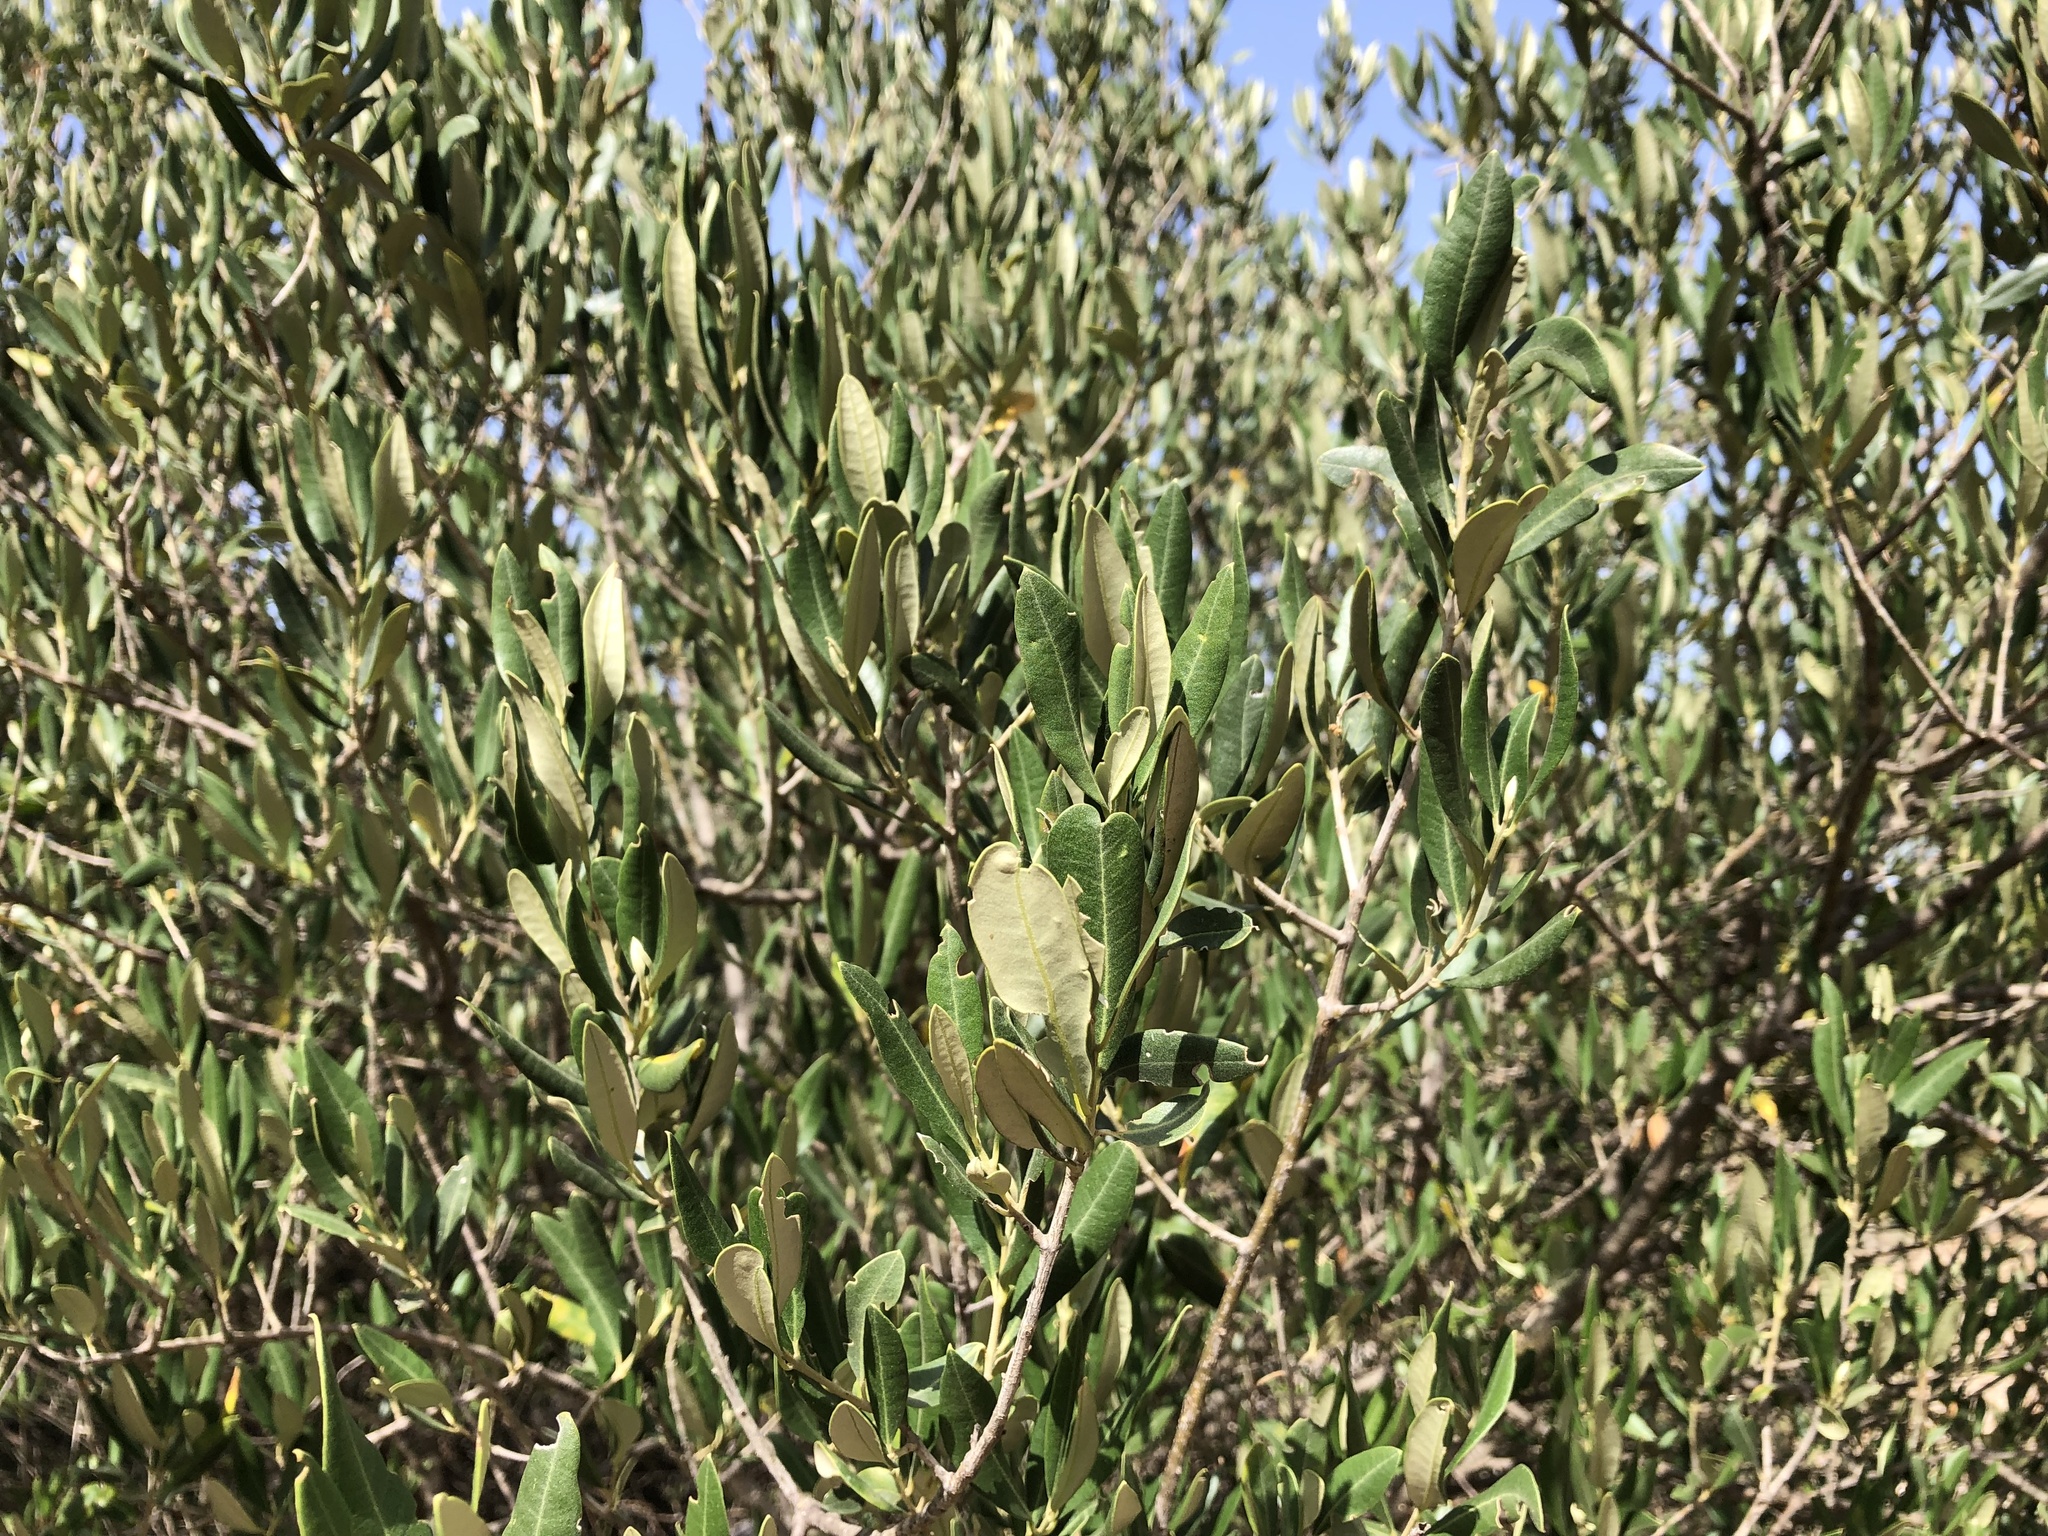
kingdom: Plantae
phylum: Tracheophyta
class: Magnoliopsida
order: Lamiales
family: Oleaceae
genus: Olea
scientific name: Olea europaea
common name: Olive
